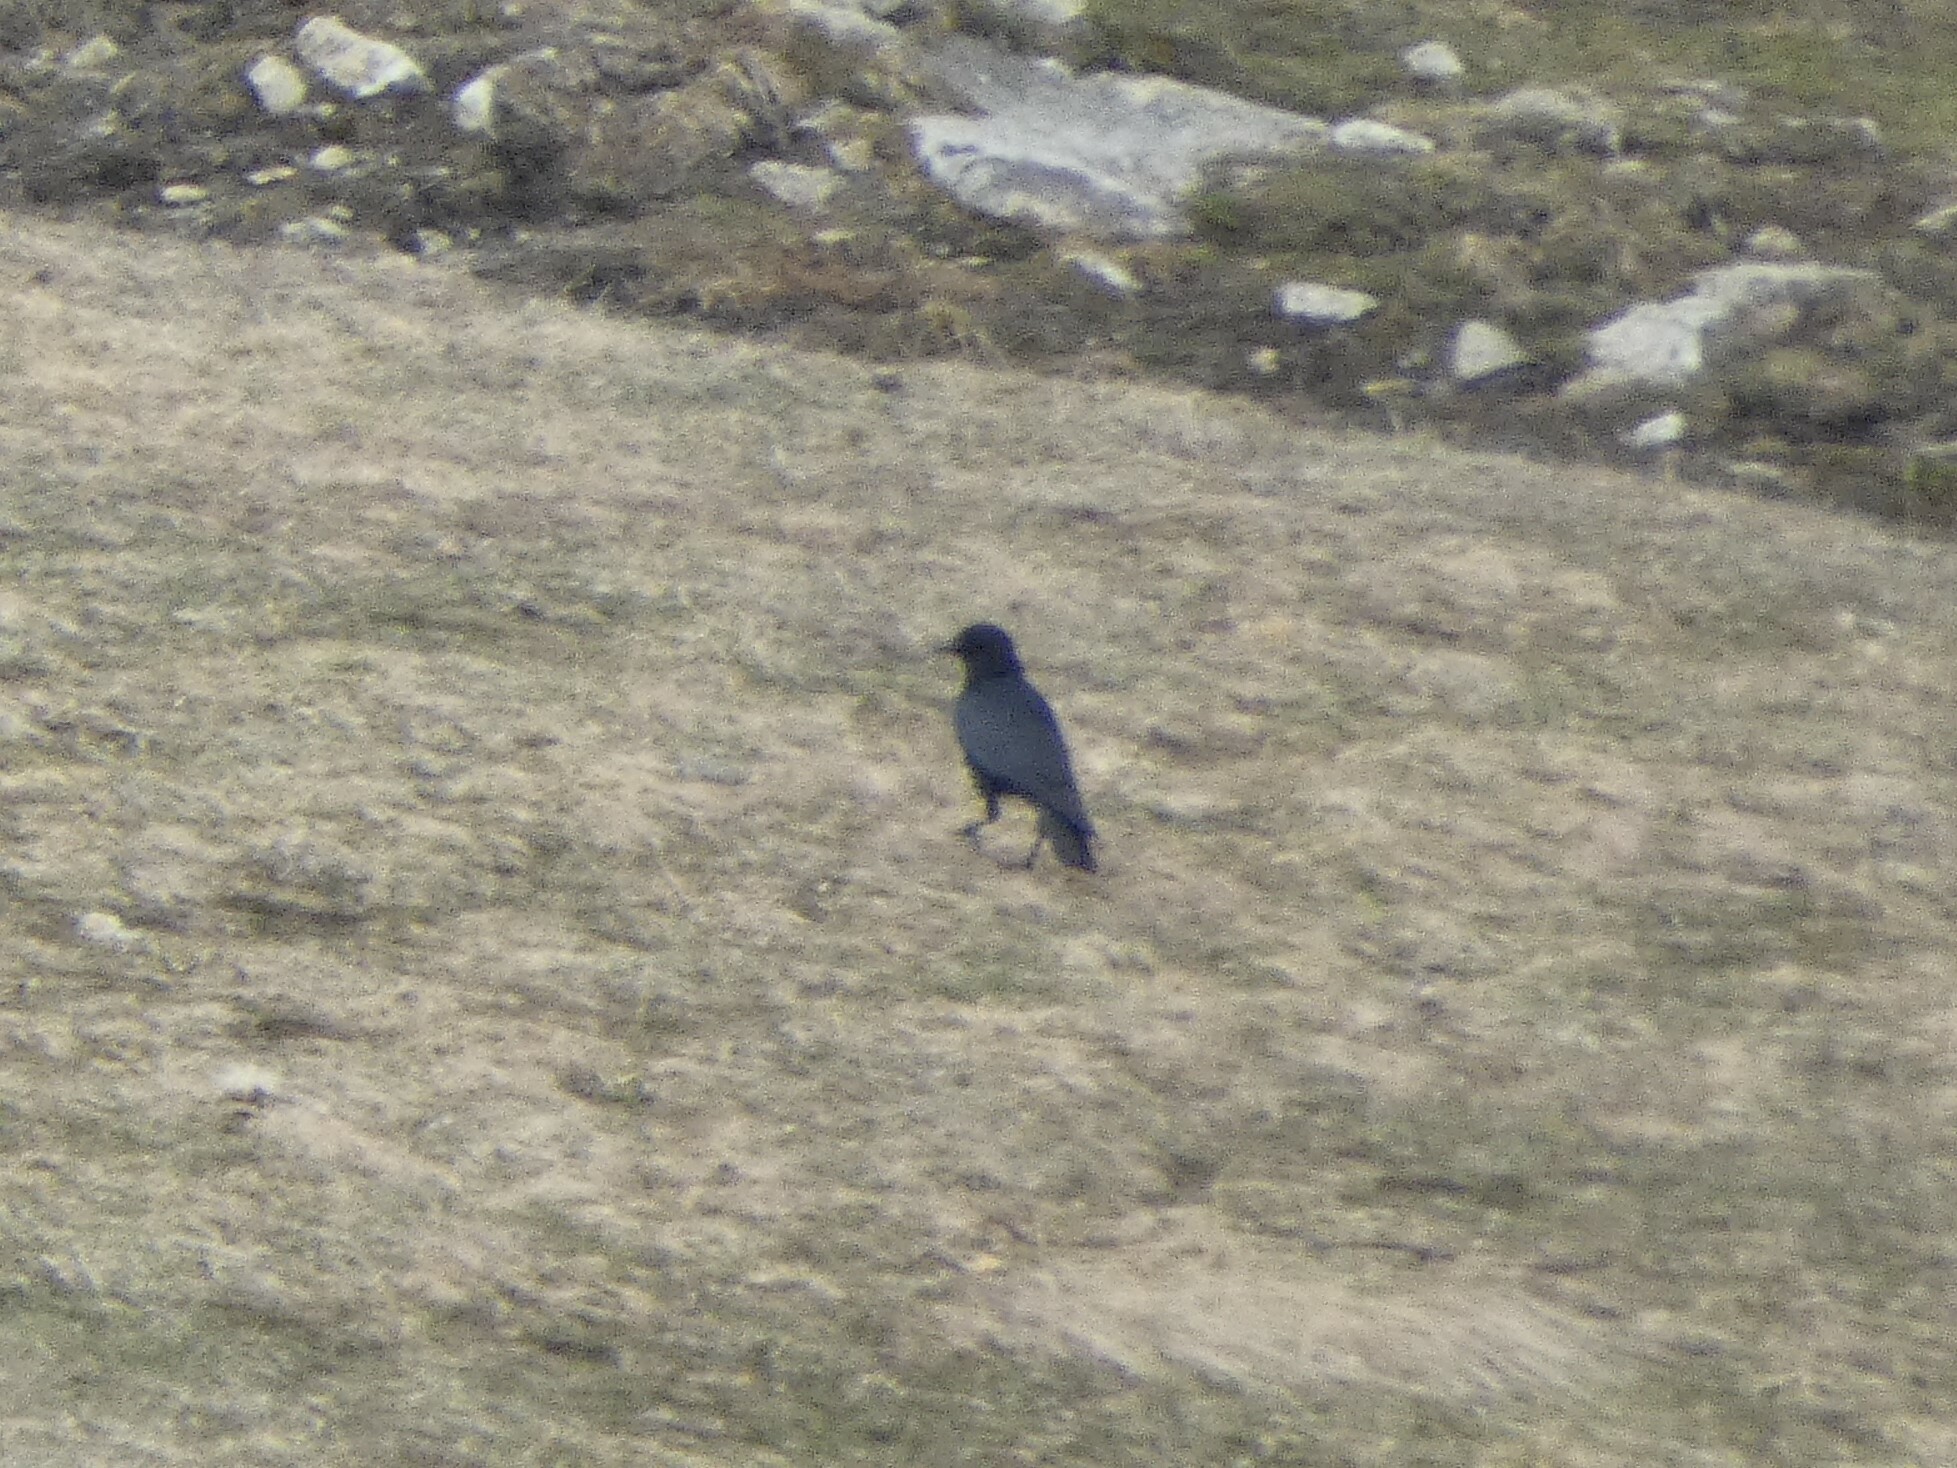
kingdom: Animalia
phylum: Chordata
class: Aves
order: Passeriformes
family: Corvidae
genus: Corvus
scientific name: Corvus corone
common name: Carrion crow
